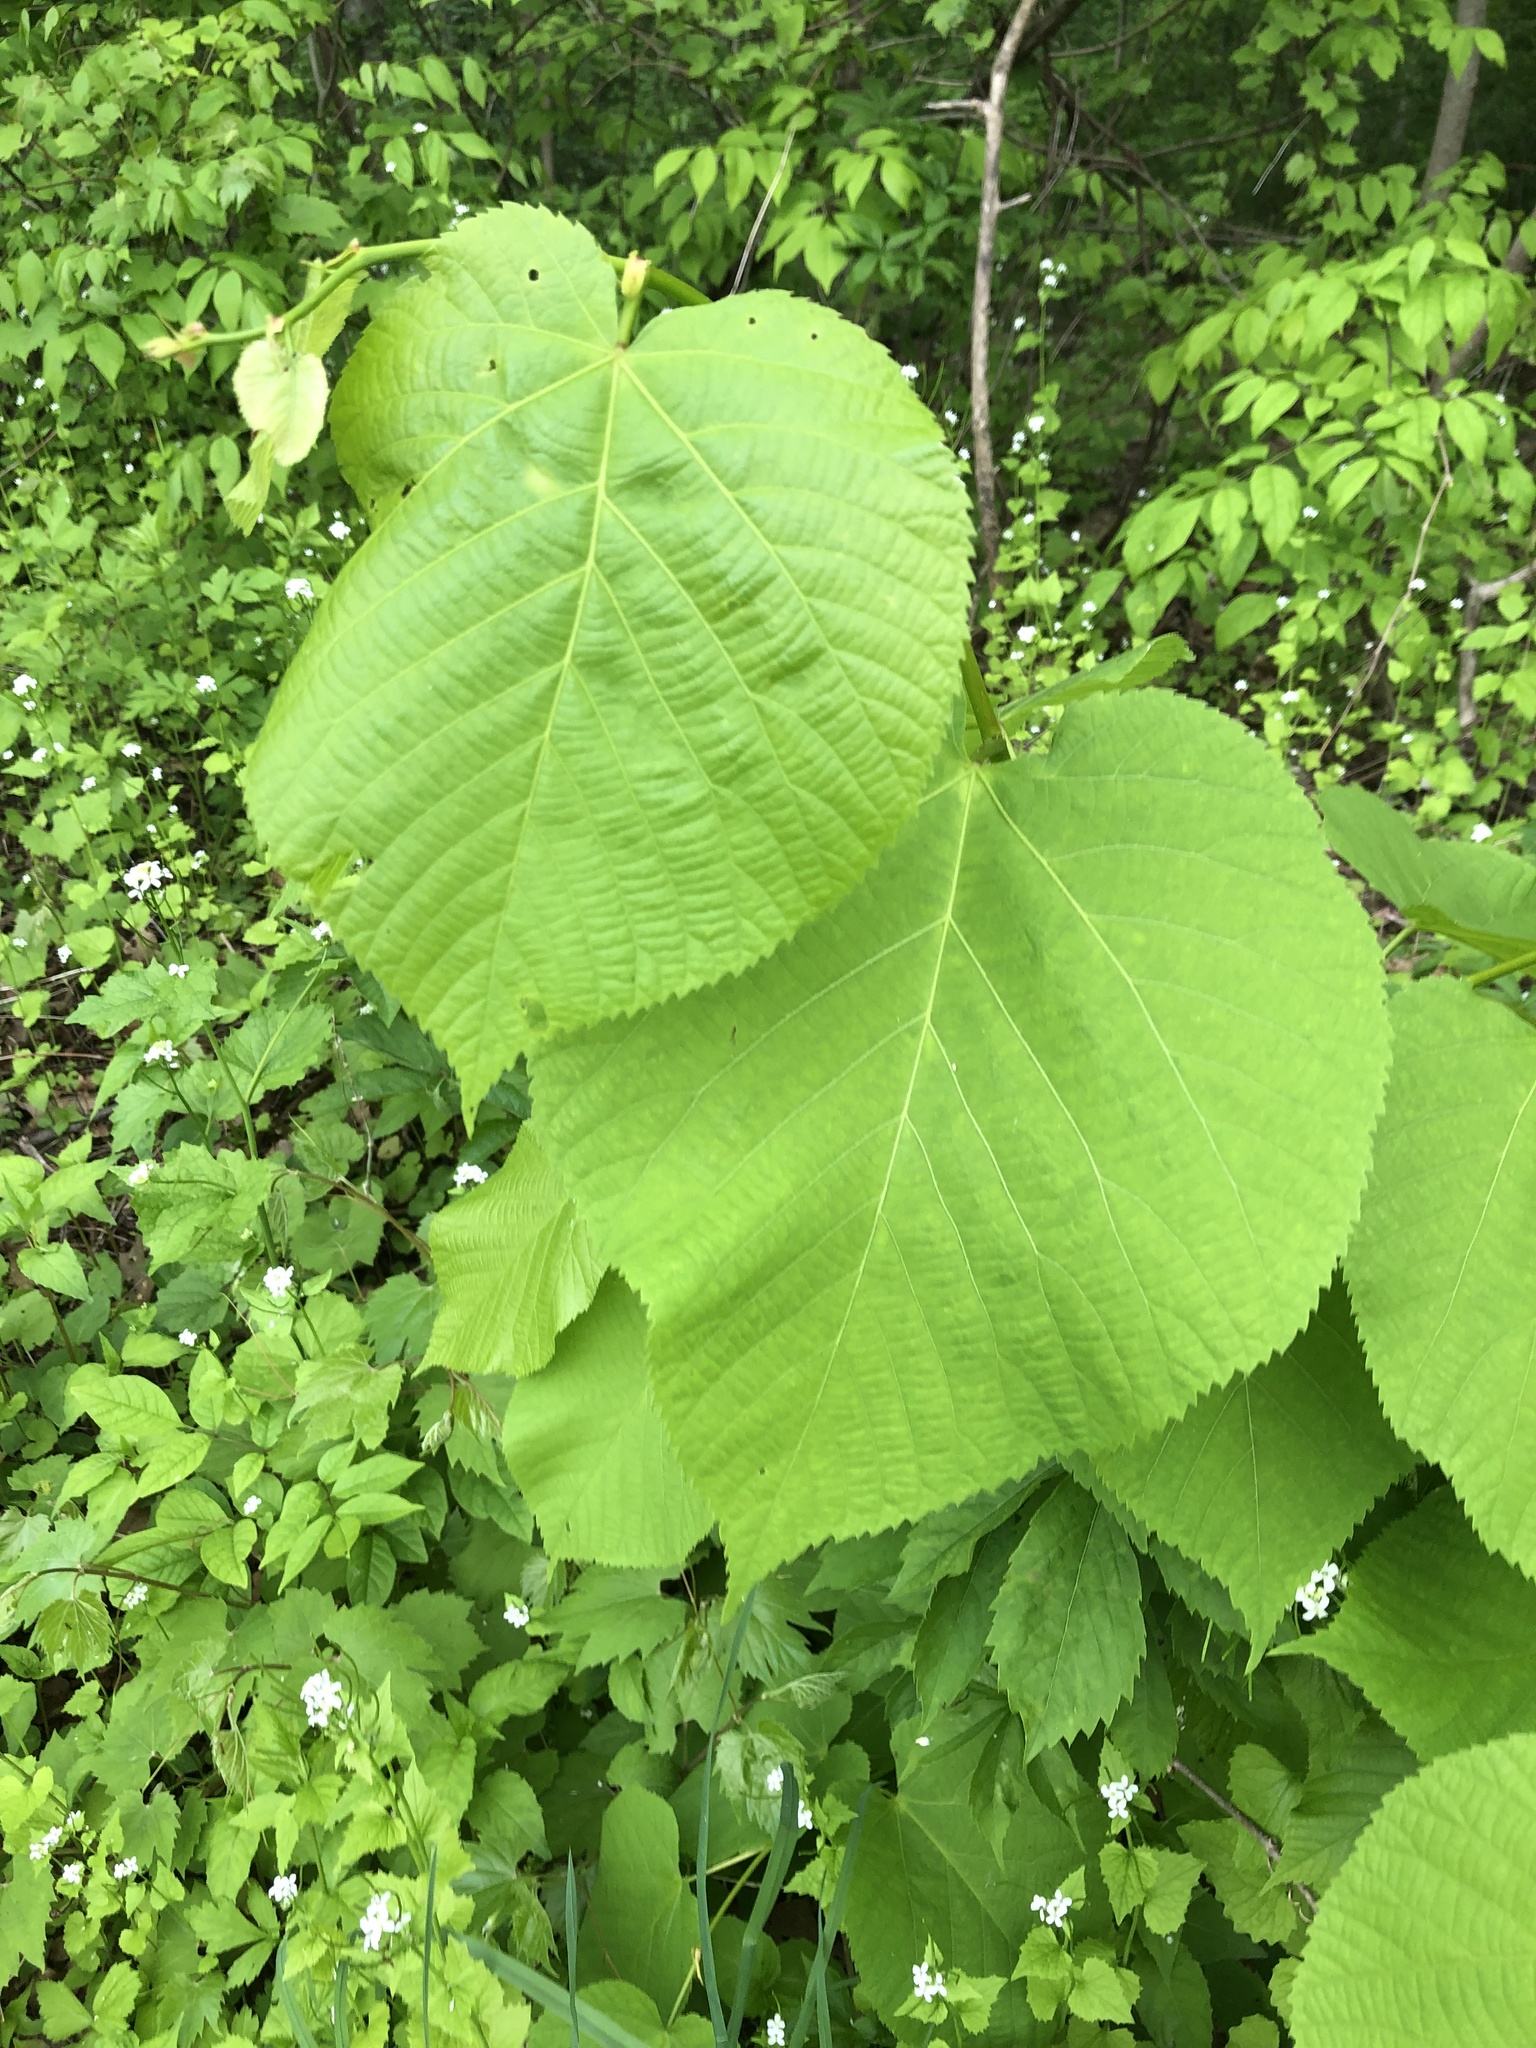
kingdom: Plantae
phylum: Tracheophyta
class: Magnoliopsida
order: Malvales
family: Malvaceae
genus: Tilia
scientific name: Tilia americana
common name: Basswood
